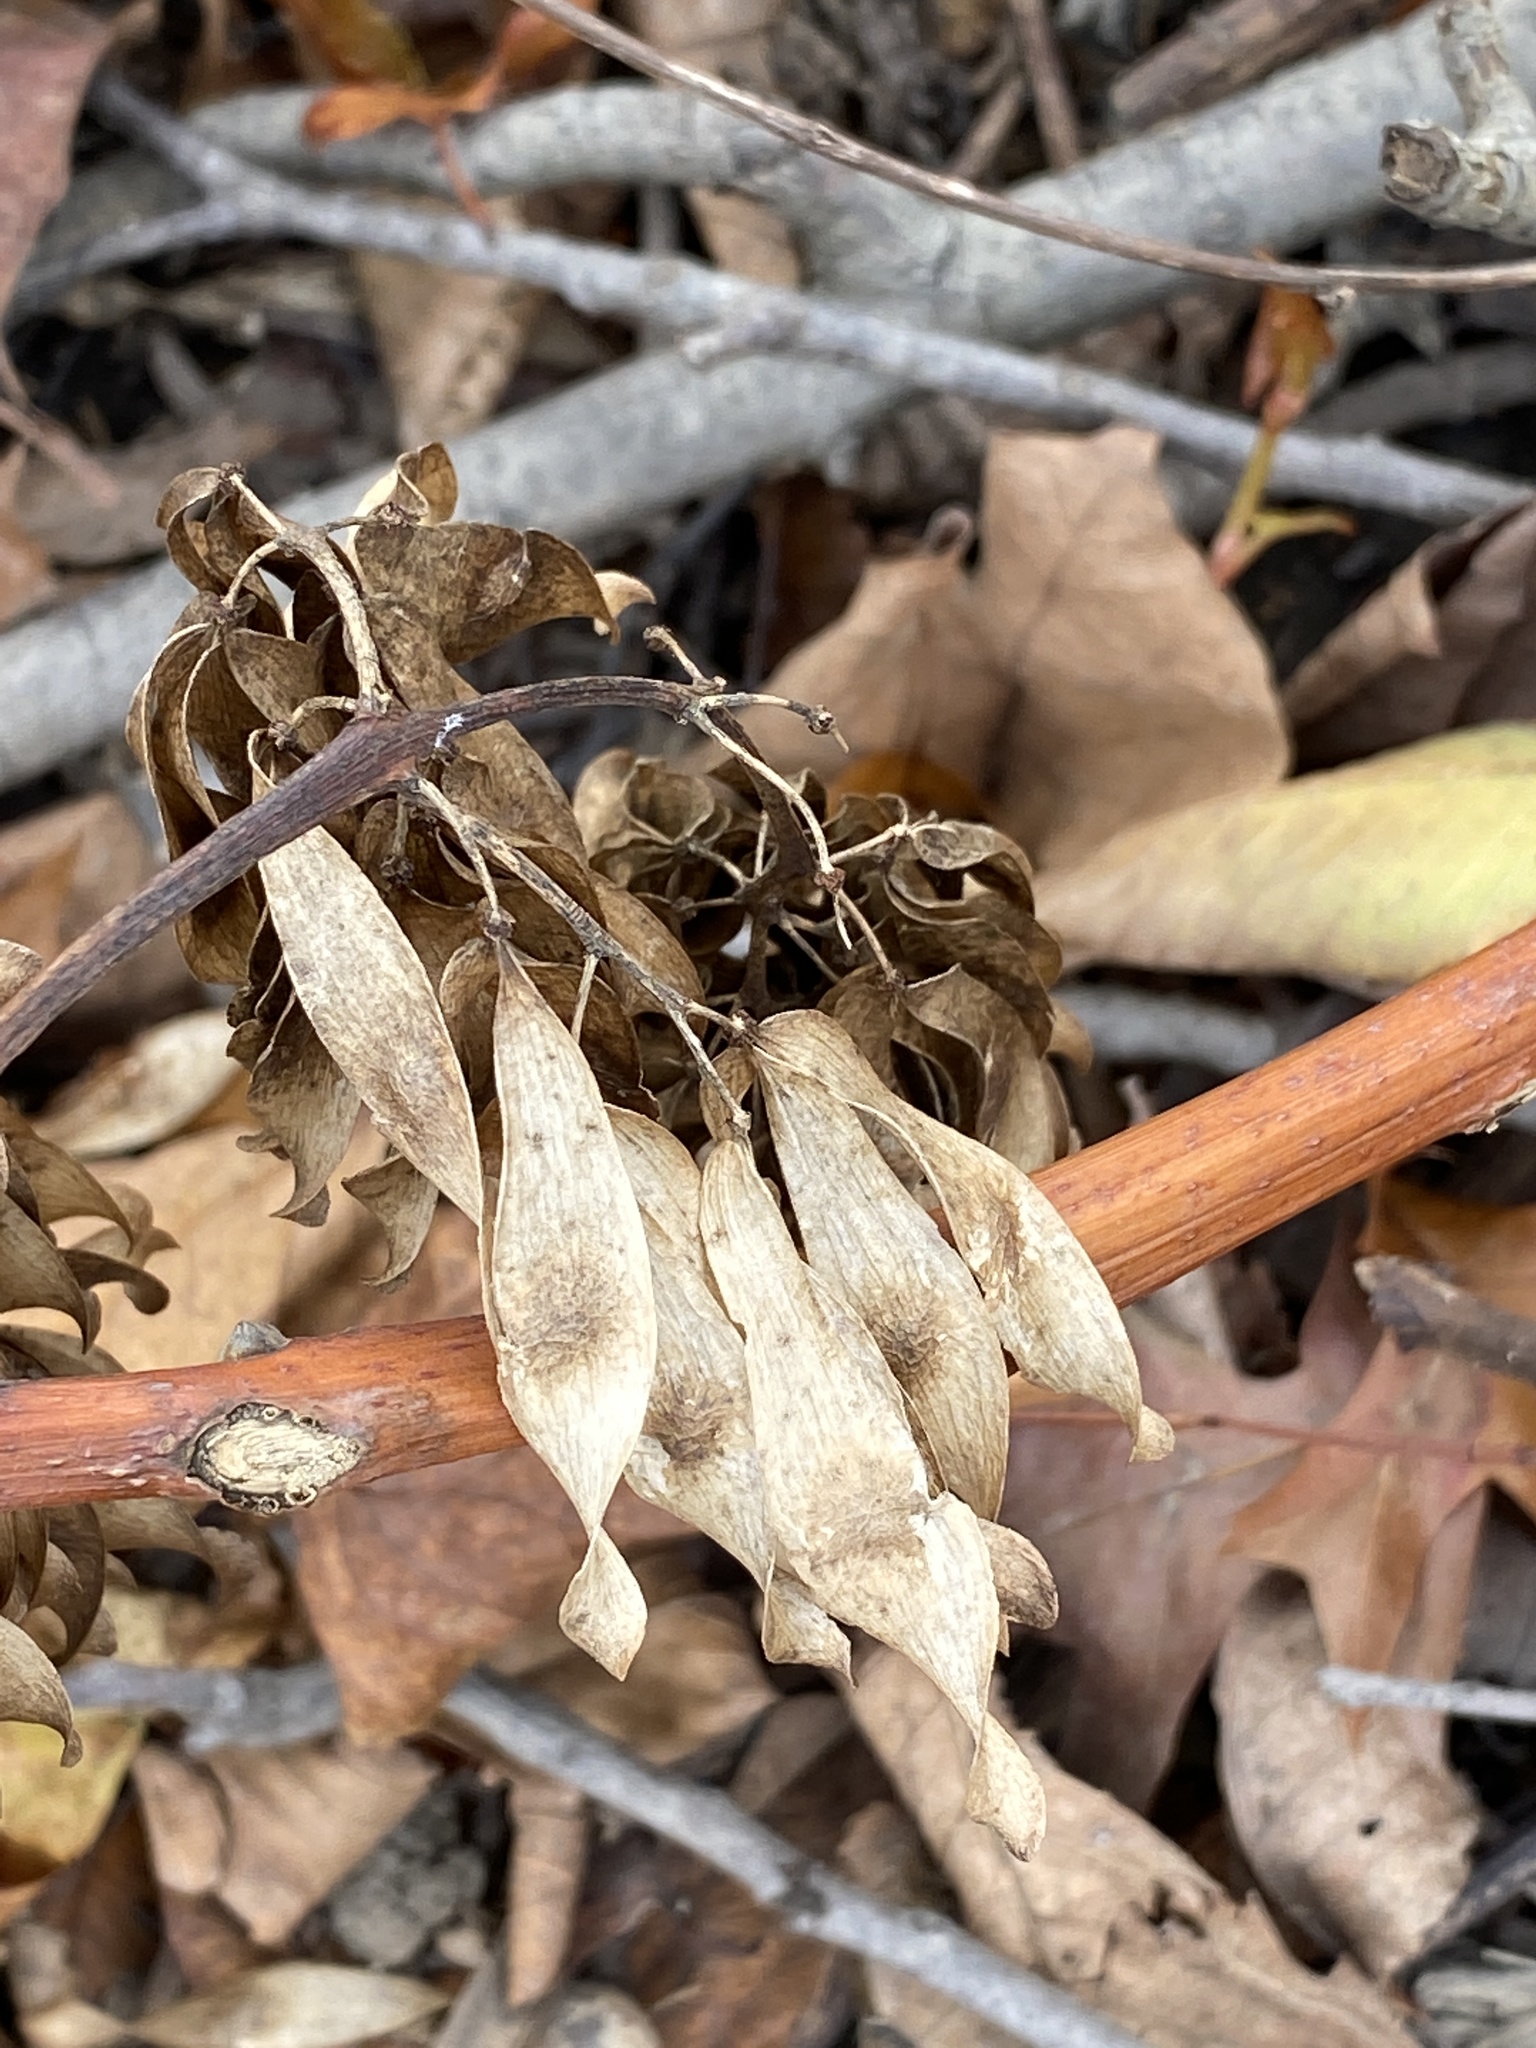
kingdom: Plantae
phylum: Tracheophyta
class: Magnoliopsida
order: Sapindales
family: Simaroubaceae
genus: Ailanthus
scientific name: Ailanthus altissima
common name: Tree-of-heaven
